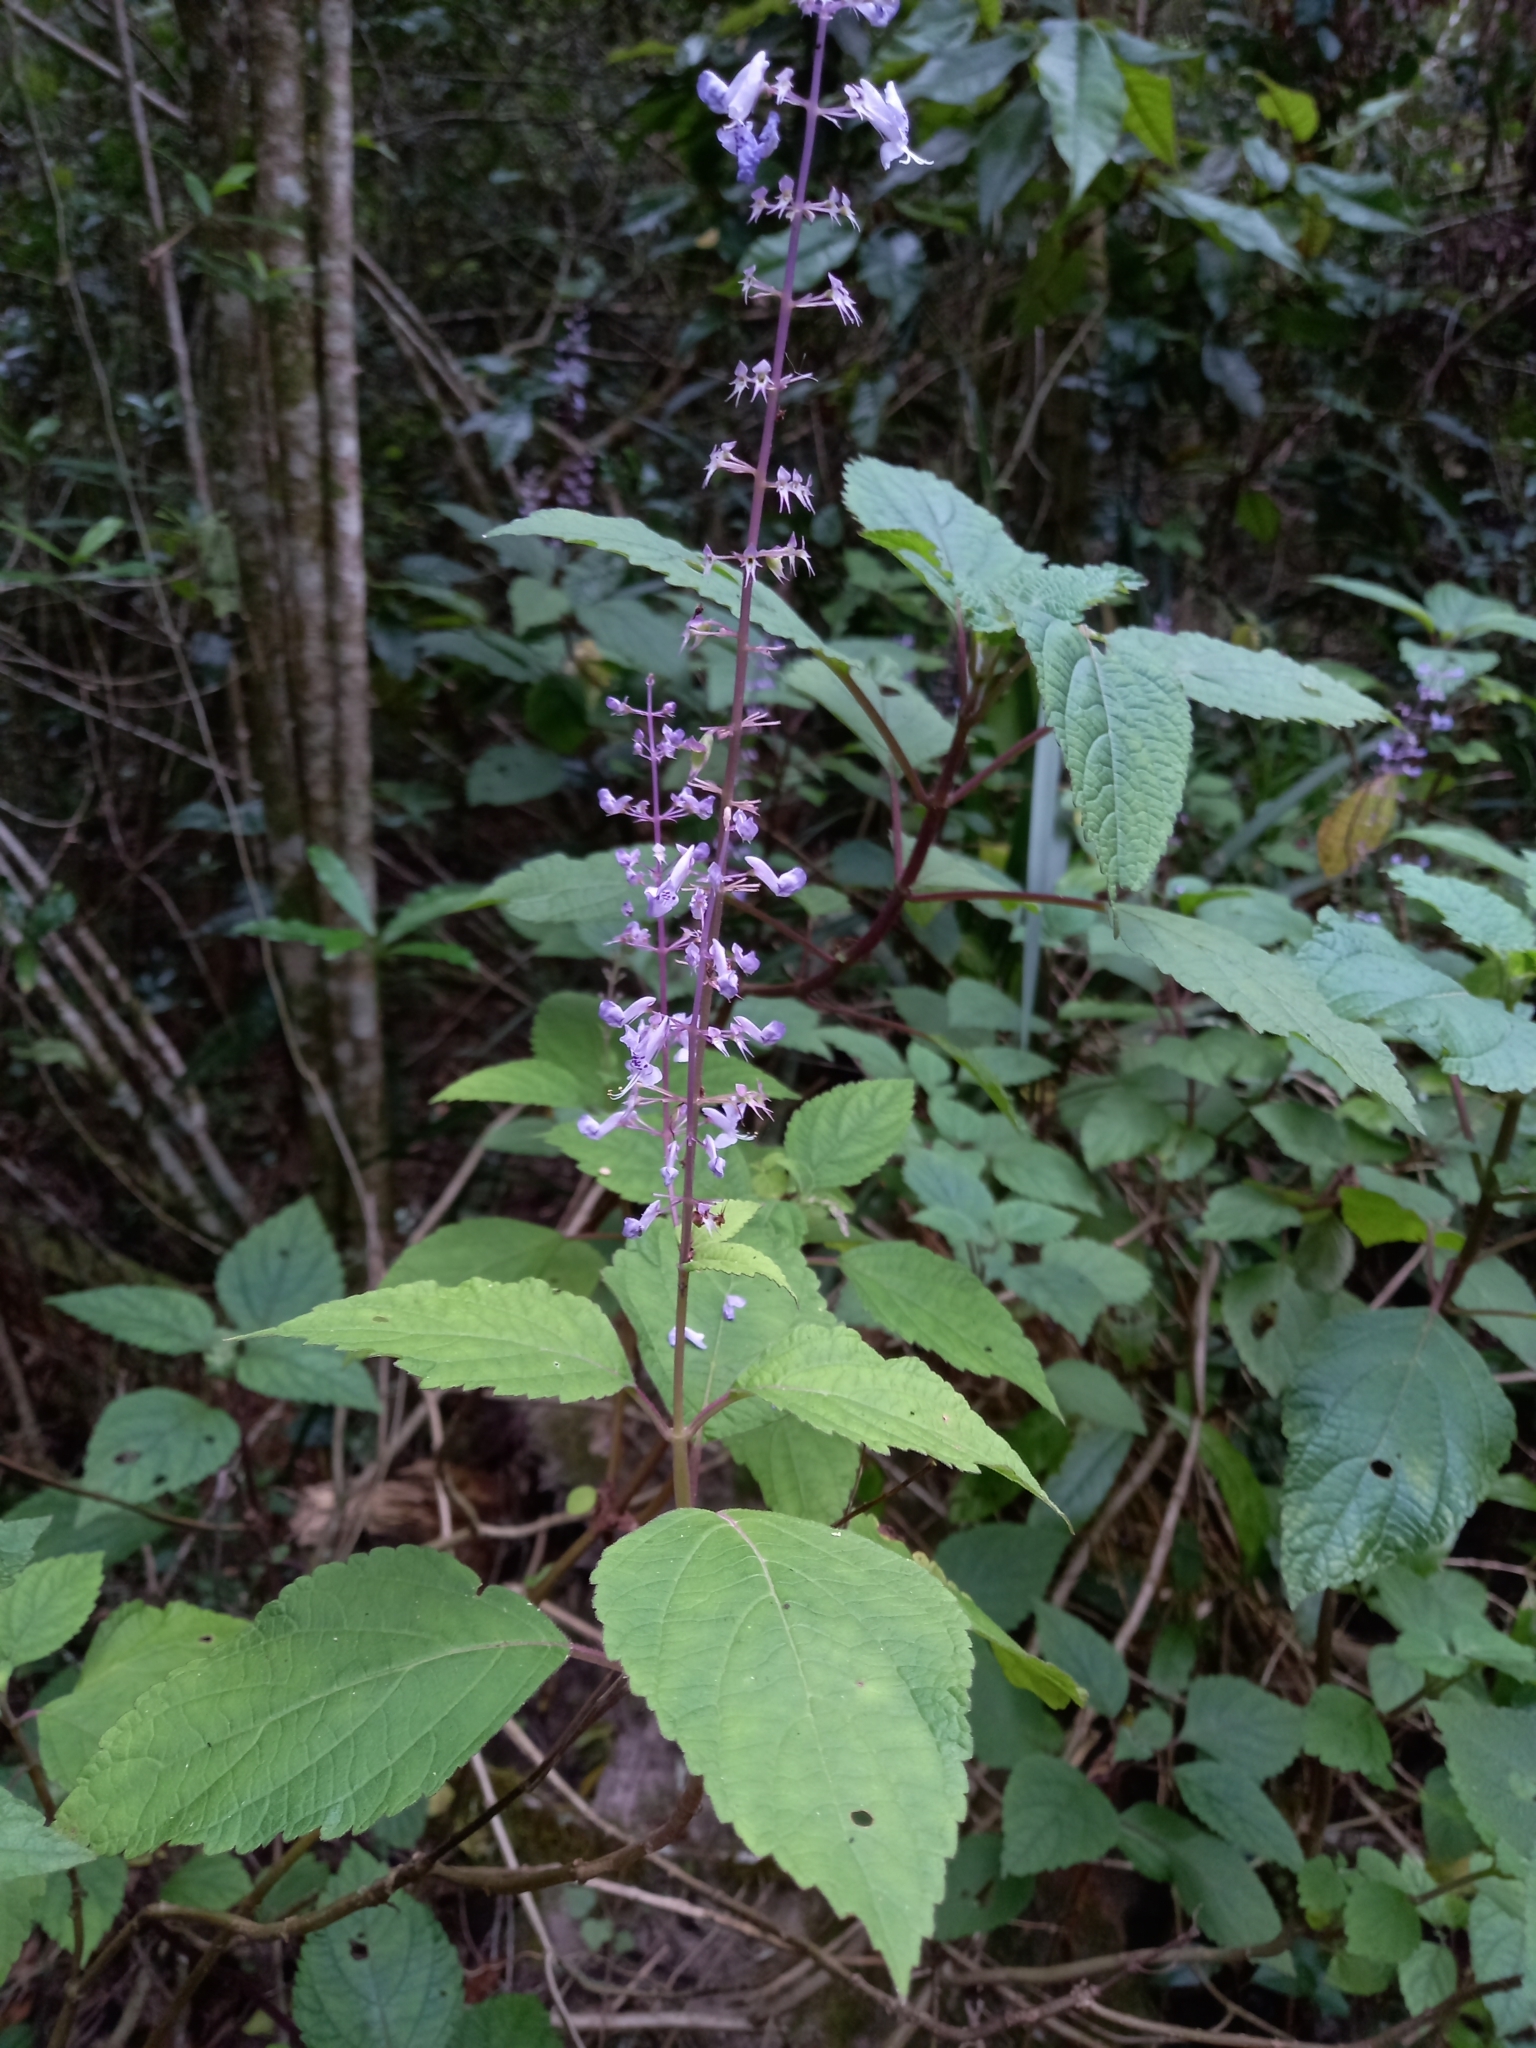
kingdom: Plantae
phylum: Tracheophyta
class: Magnoliopsida
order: Lamiales
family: Lamiaceae
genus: Plectranthus
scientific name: Plectranthus fruticosus
